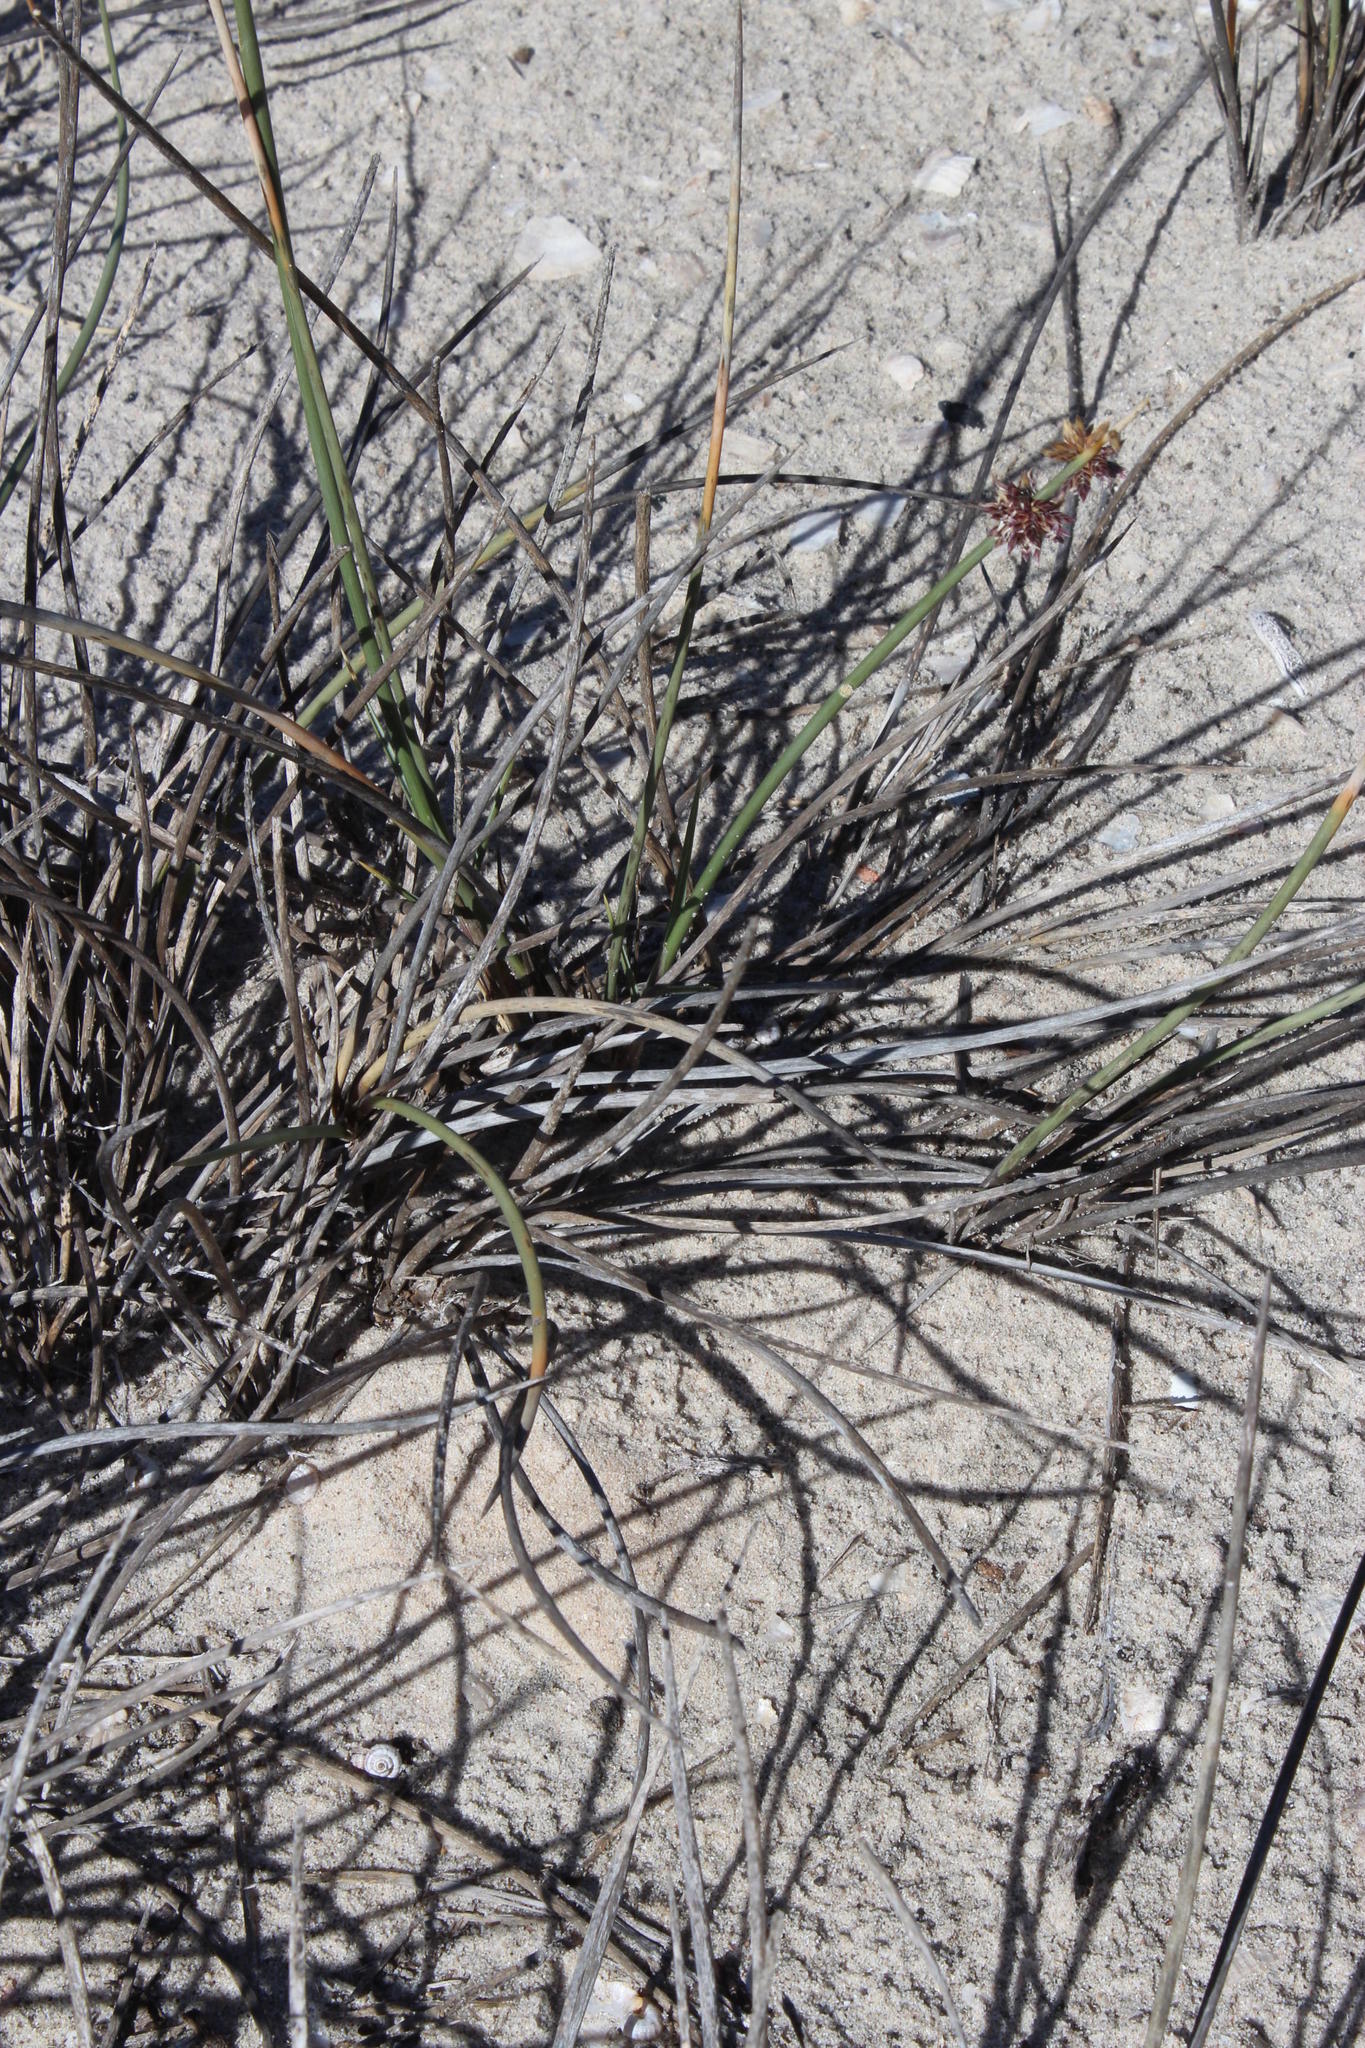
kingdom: Plantae
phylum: Tracheophyta
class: Liliopsida
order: Poales
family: Poaceae
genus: Cladoraphis
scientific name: Cladoraphis cyperoides
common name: Bristly lovegrass
